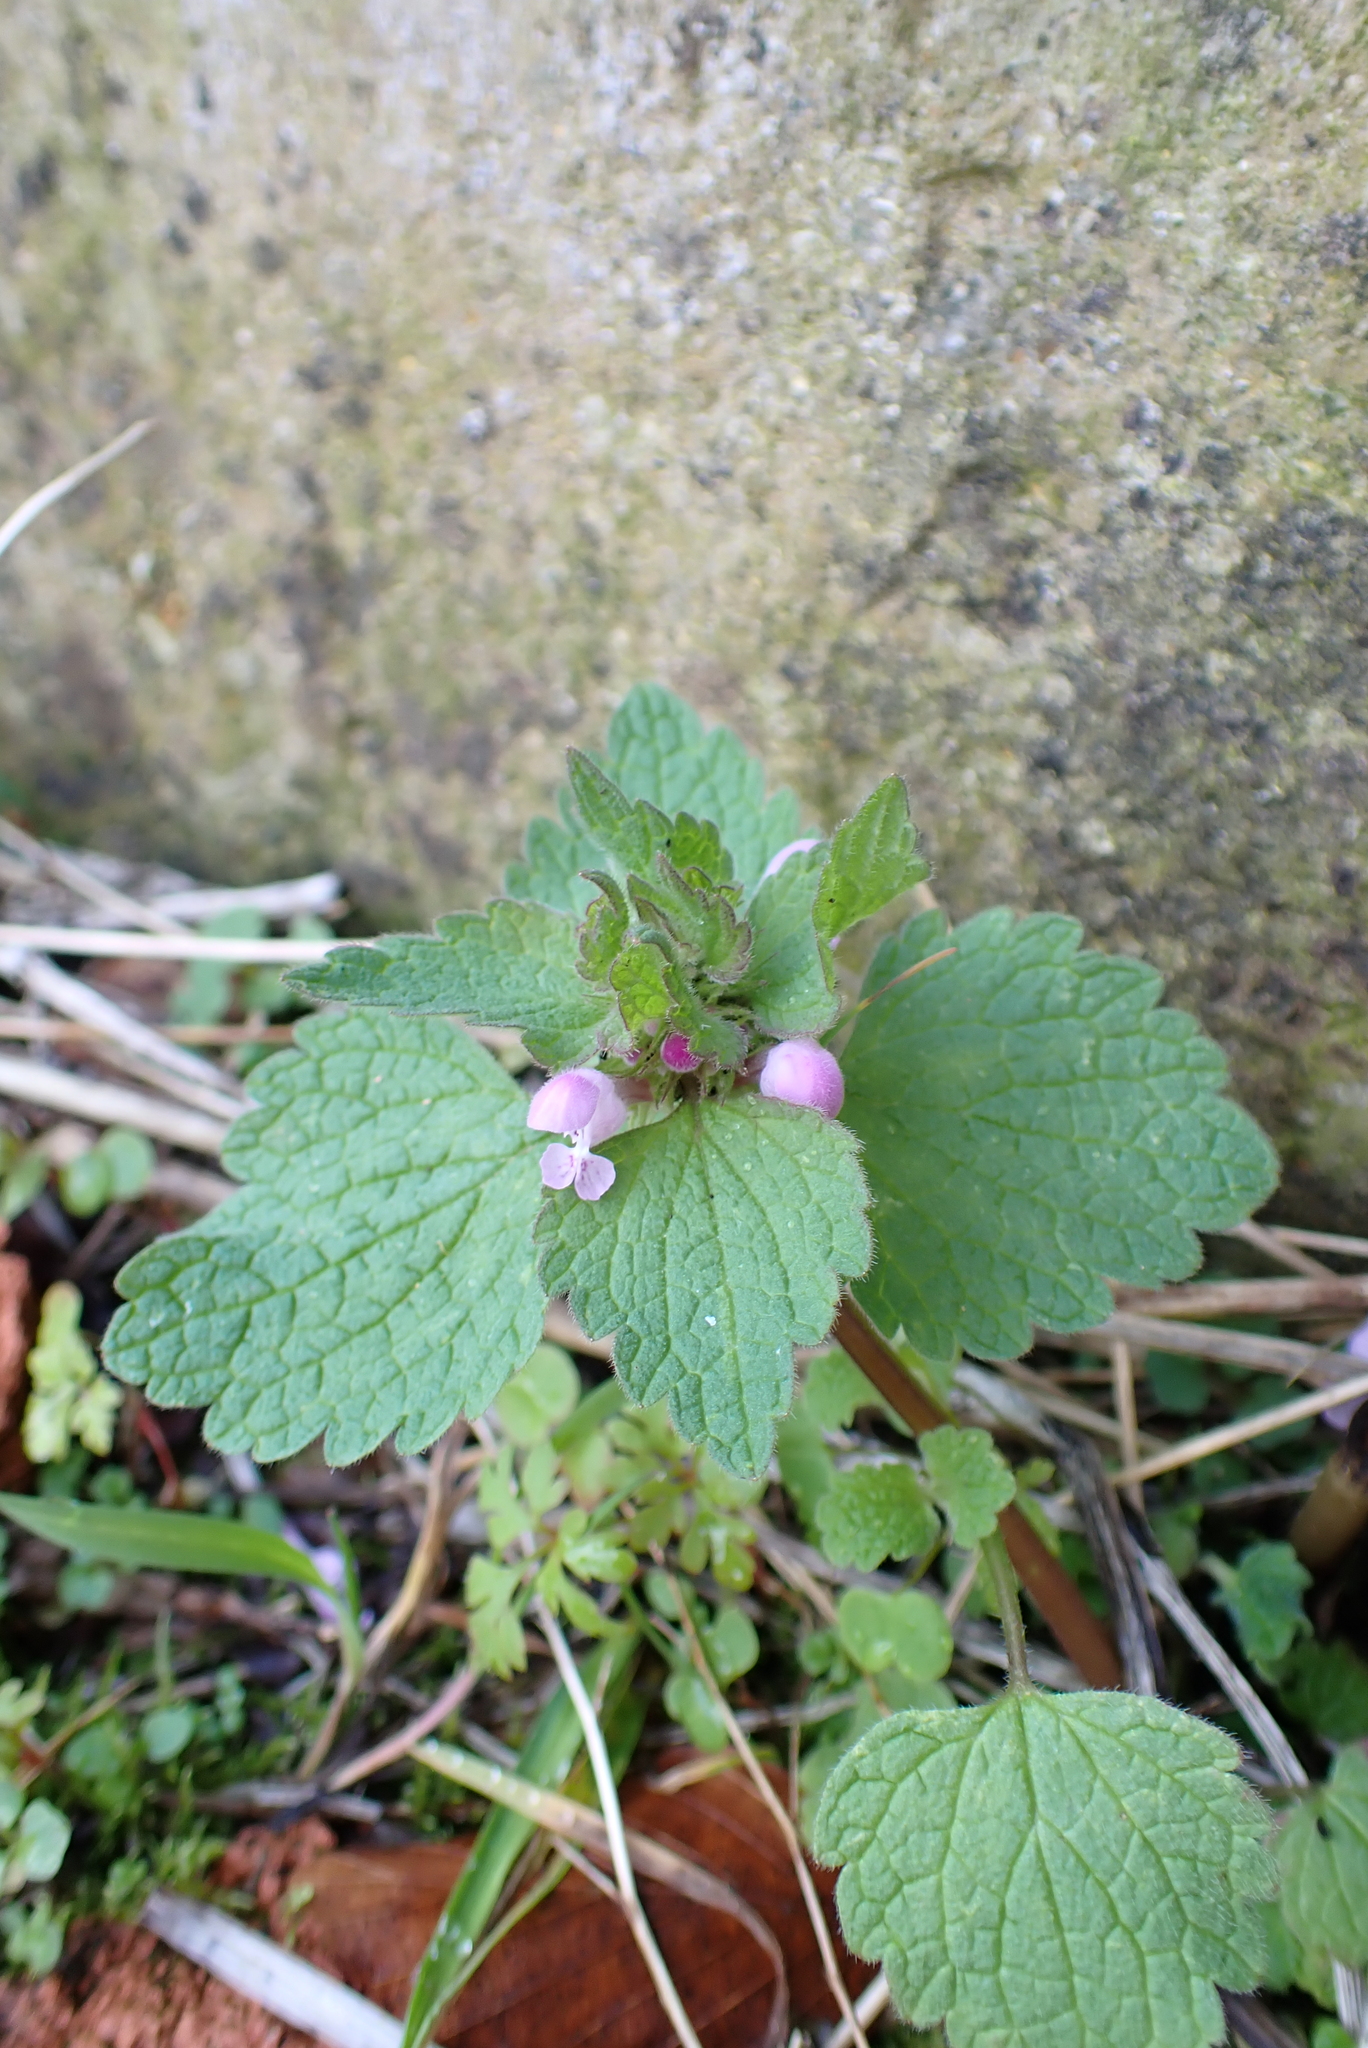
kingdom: Plantae
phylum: Tracheophyta
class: Magnoliopsida
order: Lamiales
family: Lamiaceae
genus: Lamium
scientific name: Lamium purpureum
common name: Red dead-nettle
